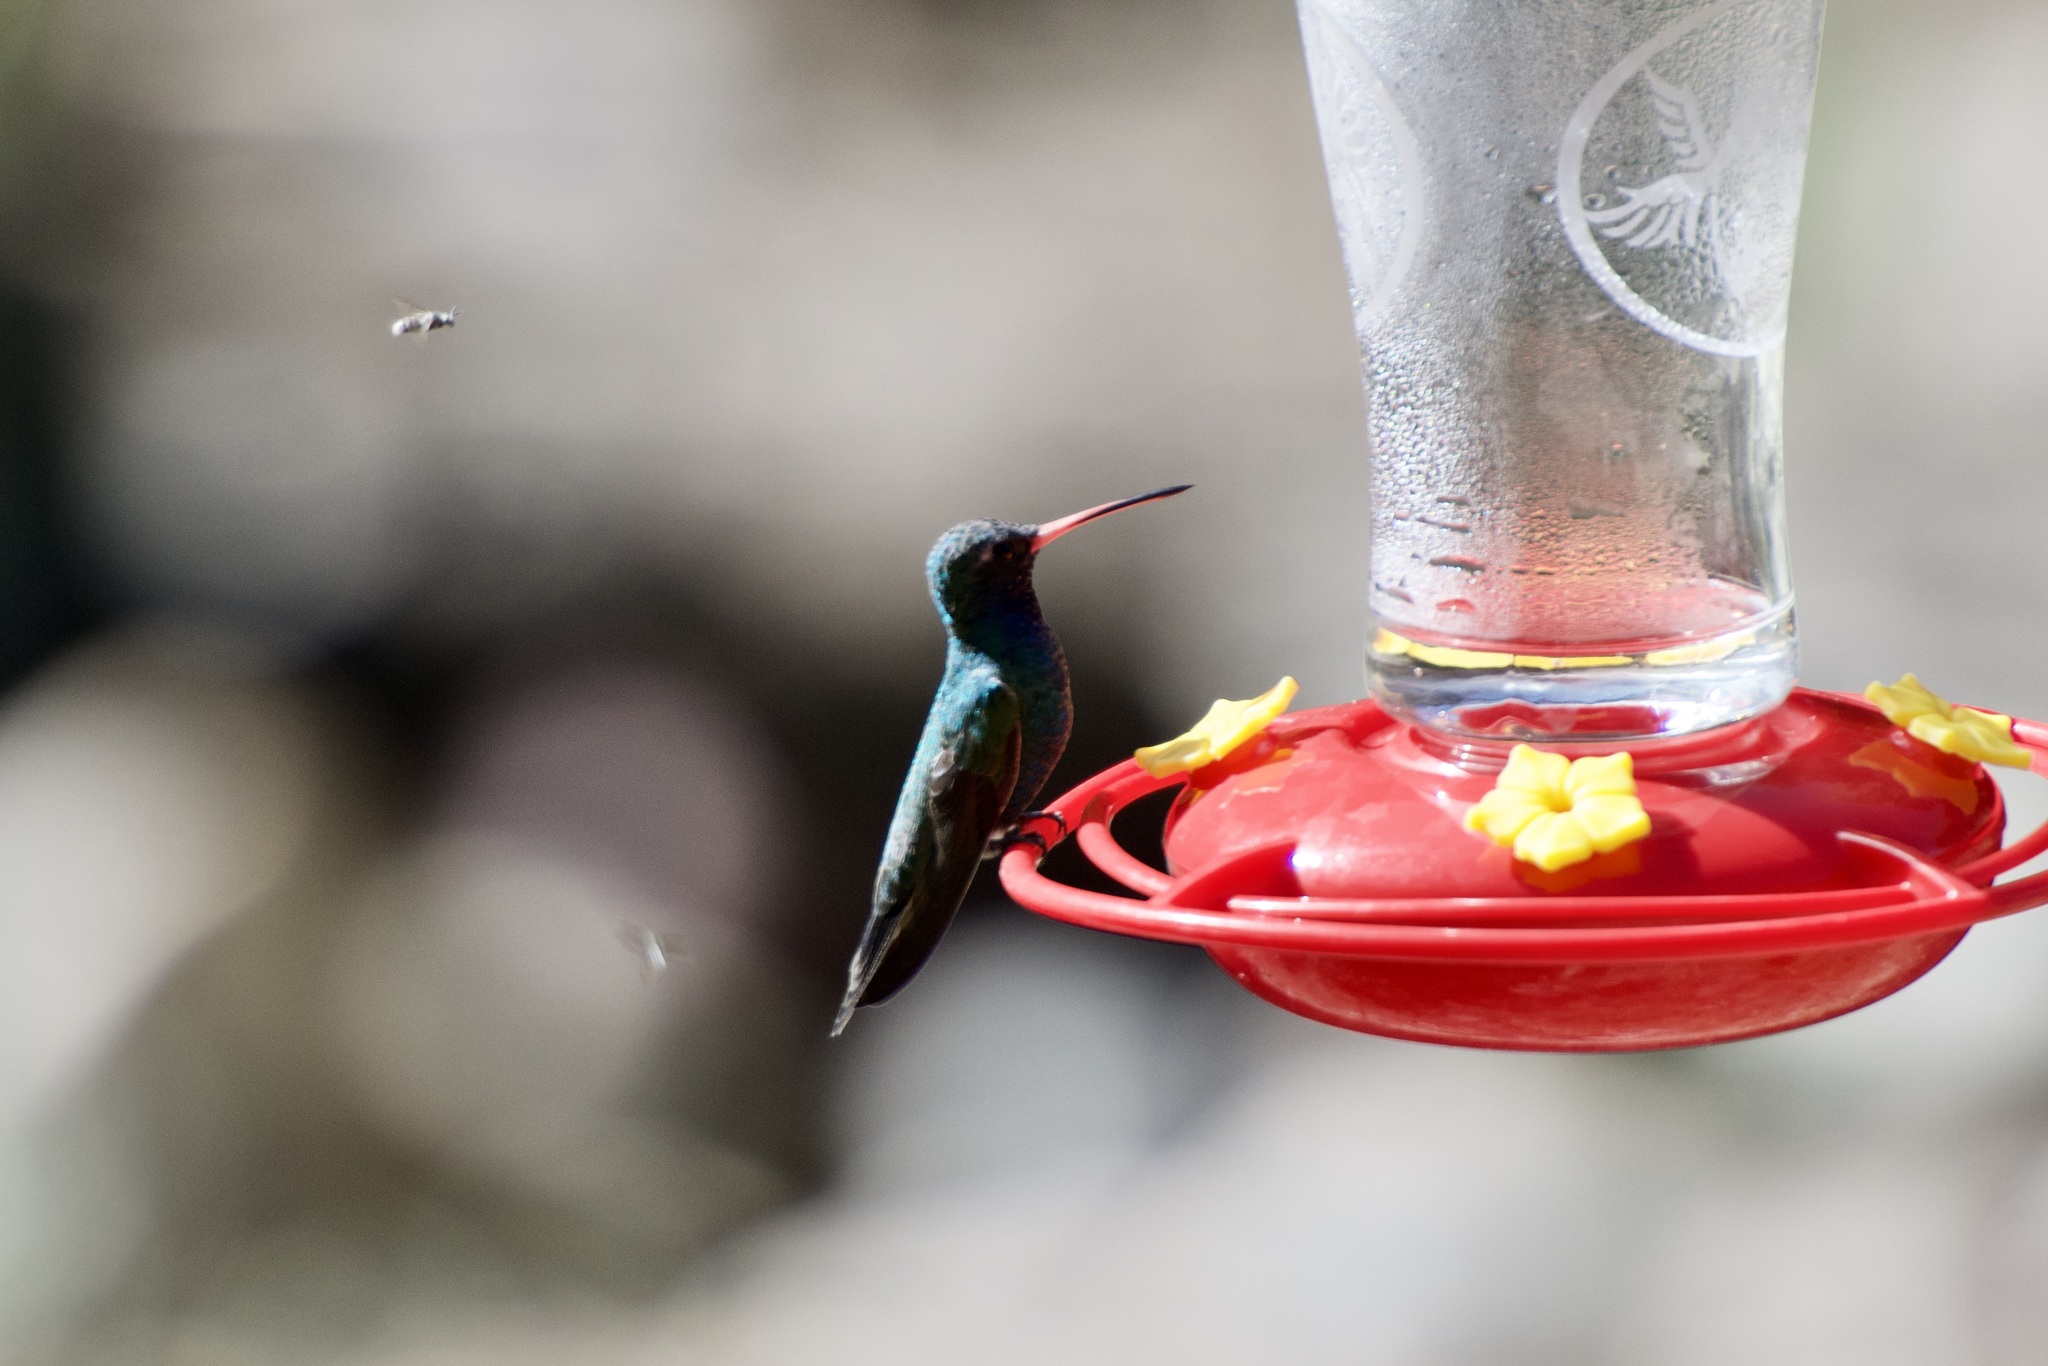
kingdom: Animalia
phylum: Chordata
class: Aves
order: Apodiformes
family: Trochilidae
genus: Cynanthus
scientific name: Cynanthus latirostris
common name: Broad-billed hummingbird
